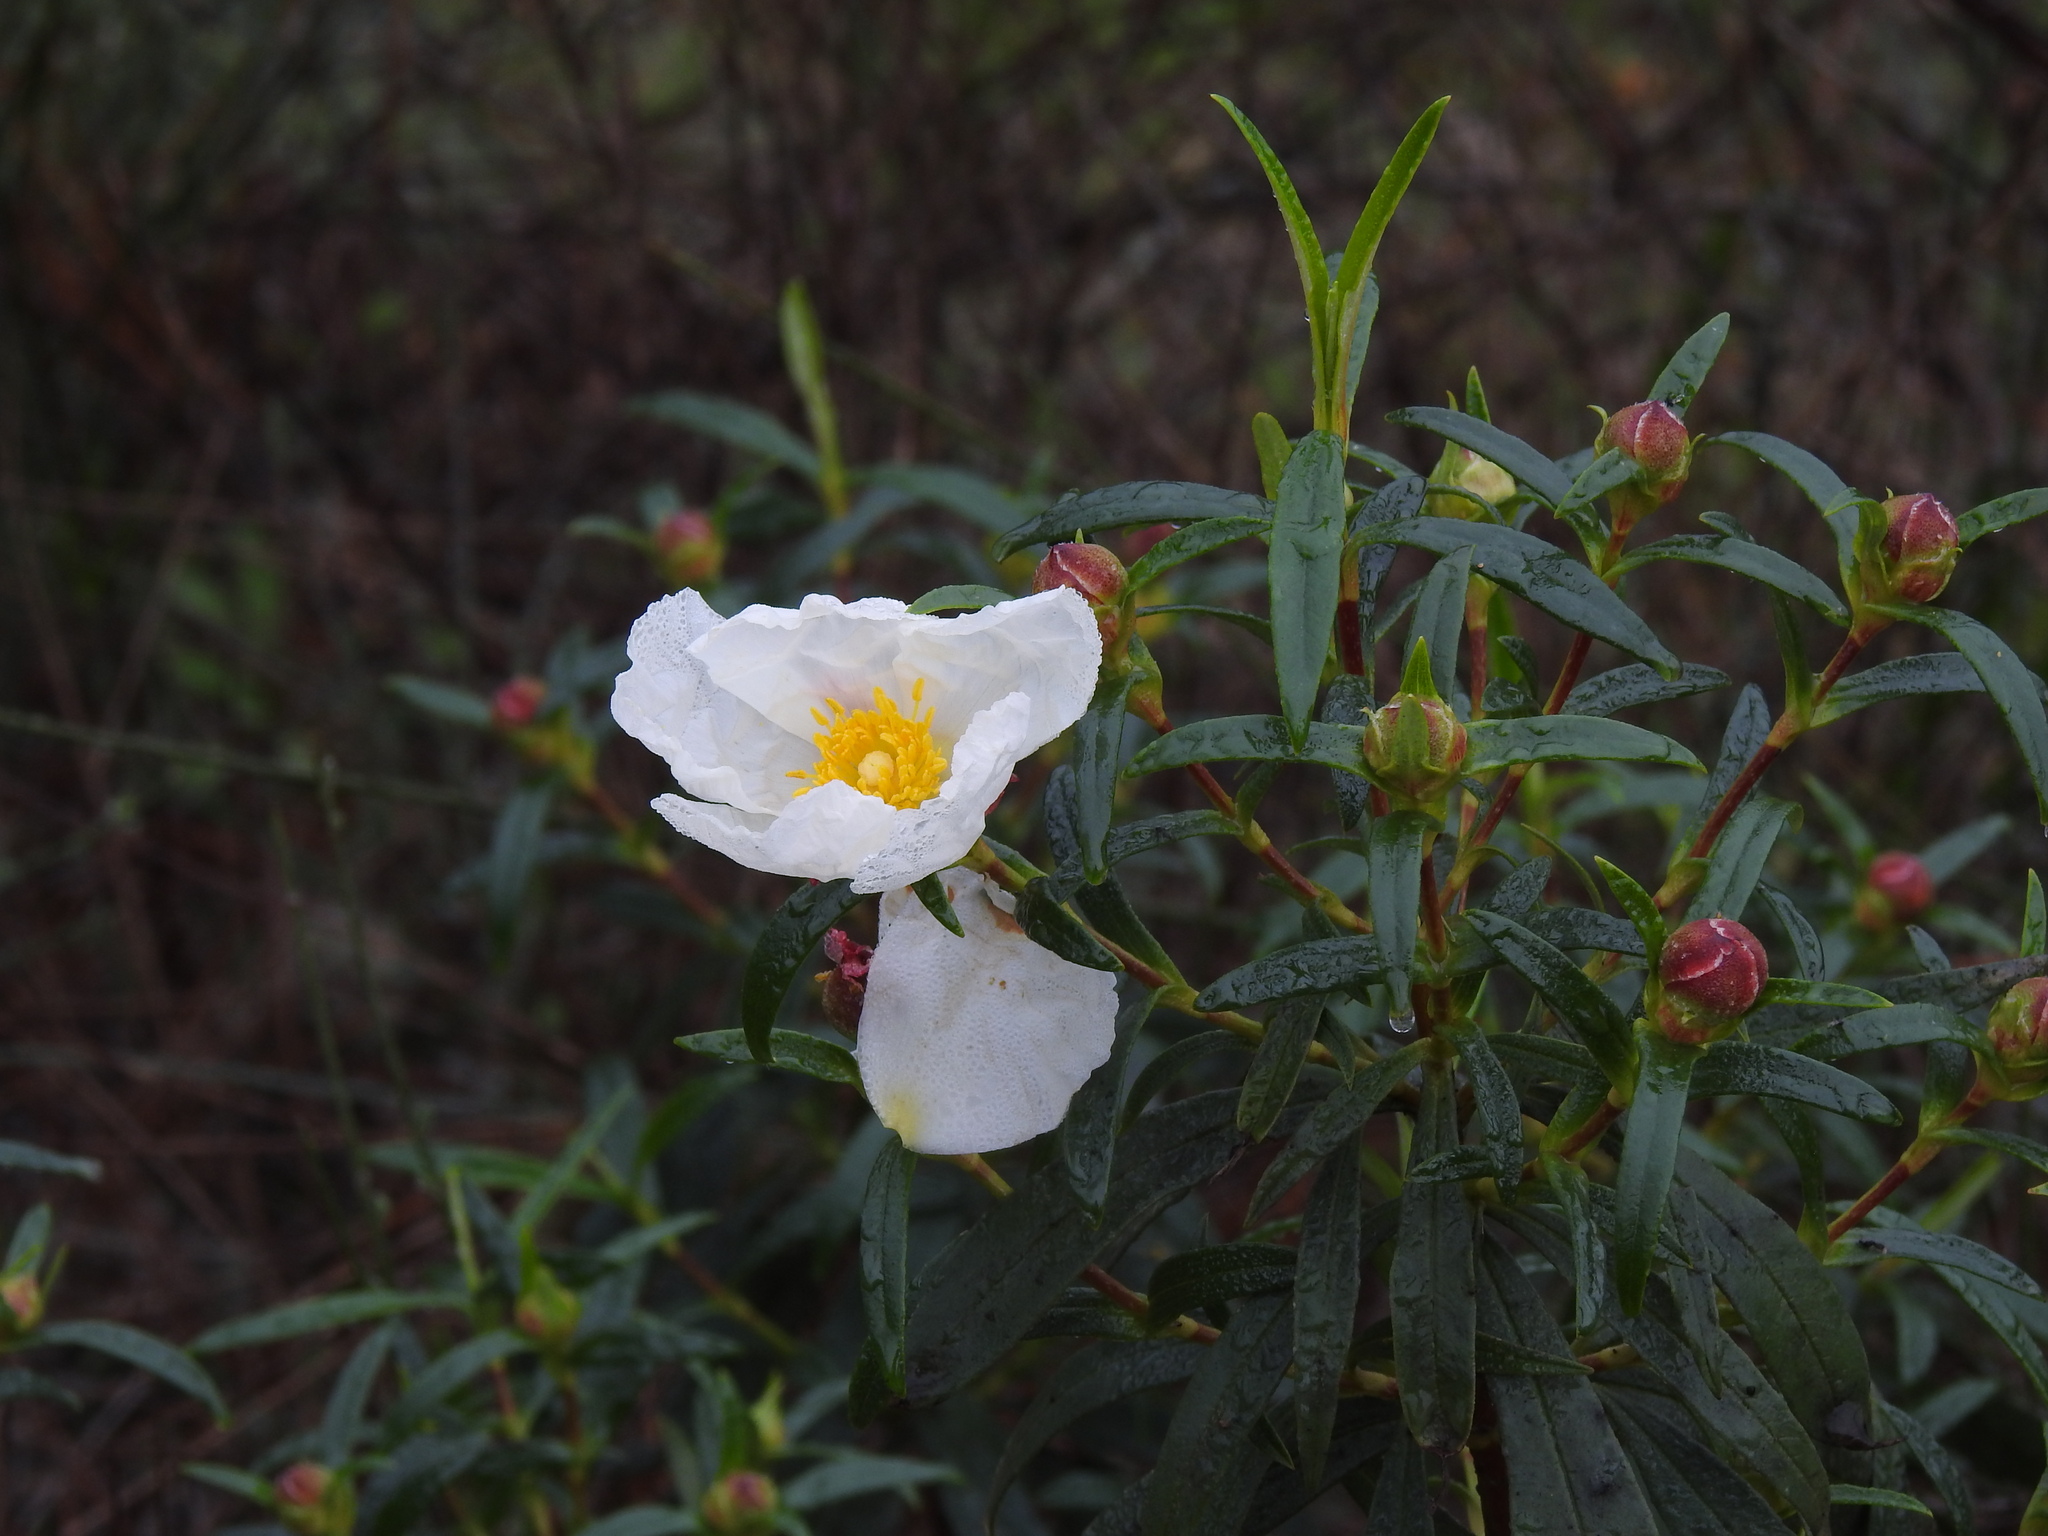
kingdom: Plantae
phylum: Tracheophyta
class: Magnoliopsida
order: Malvales
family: Cistaceae
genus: Cistus
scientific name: Cistus ladanifer
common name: Common gum cistus
